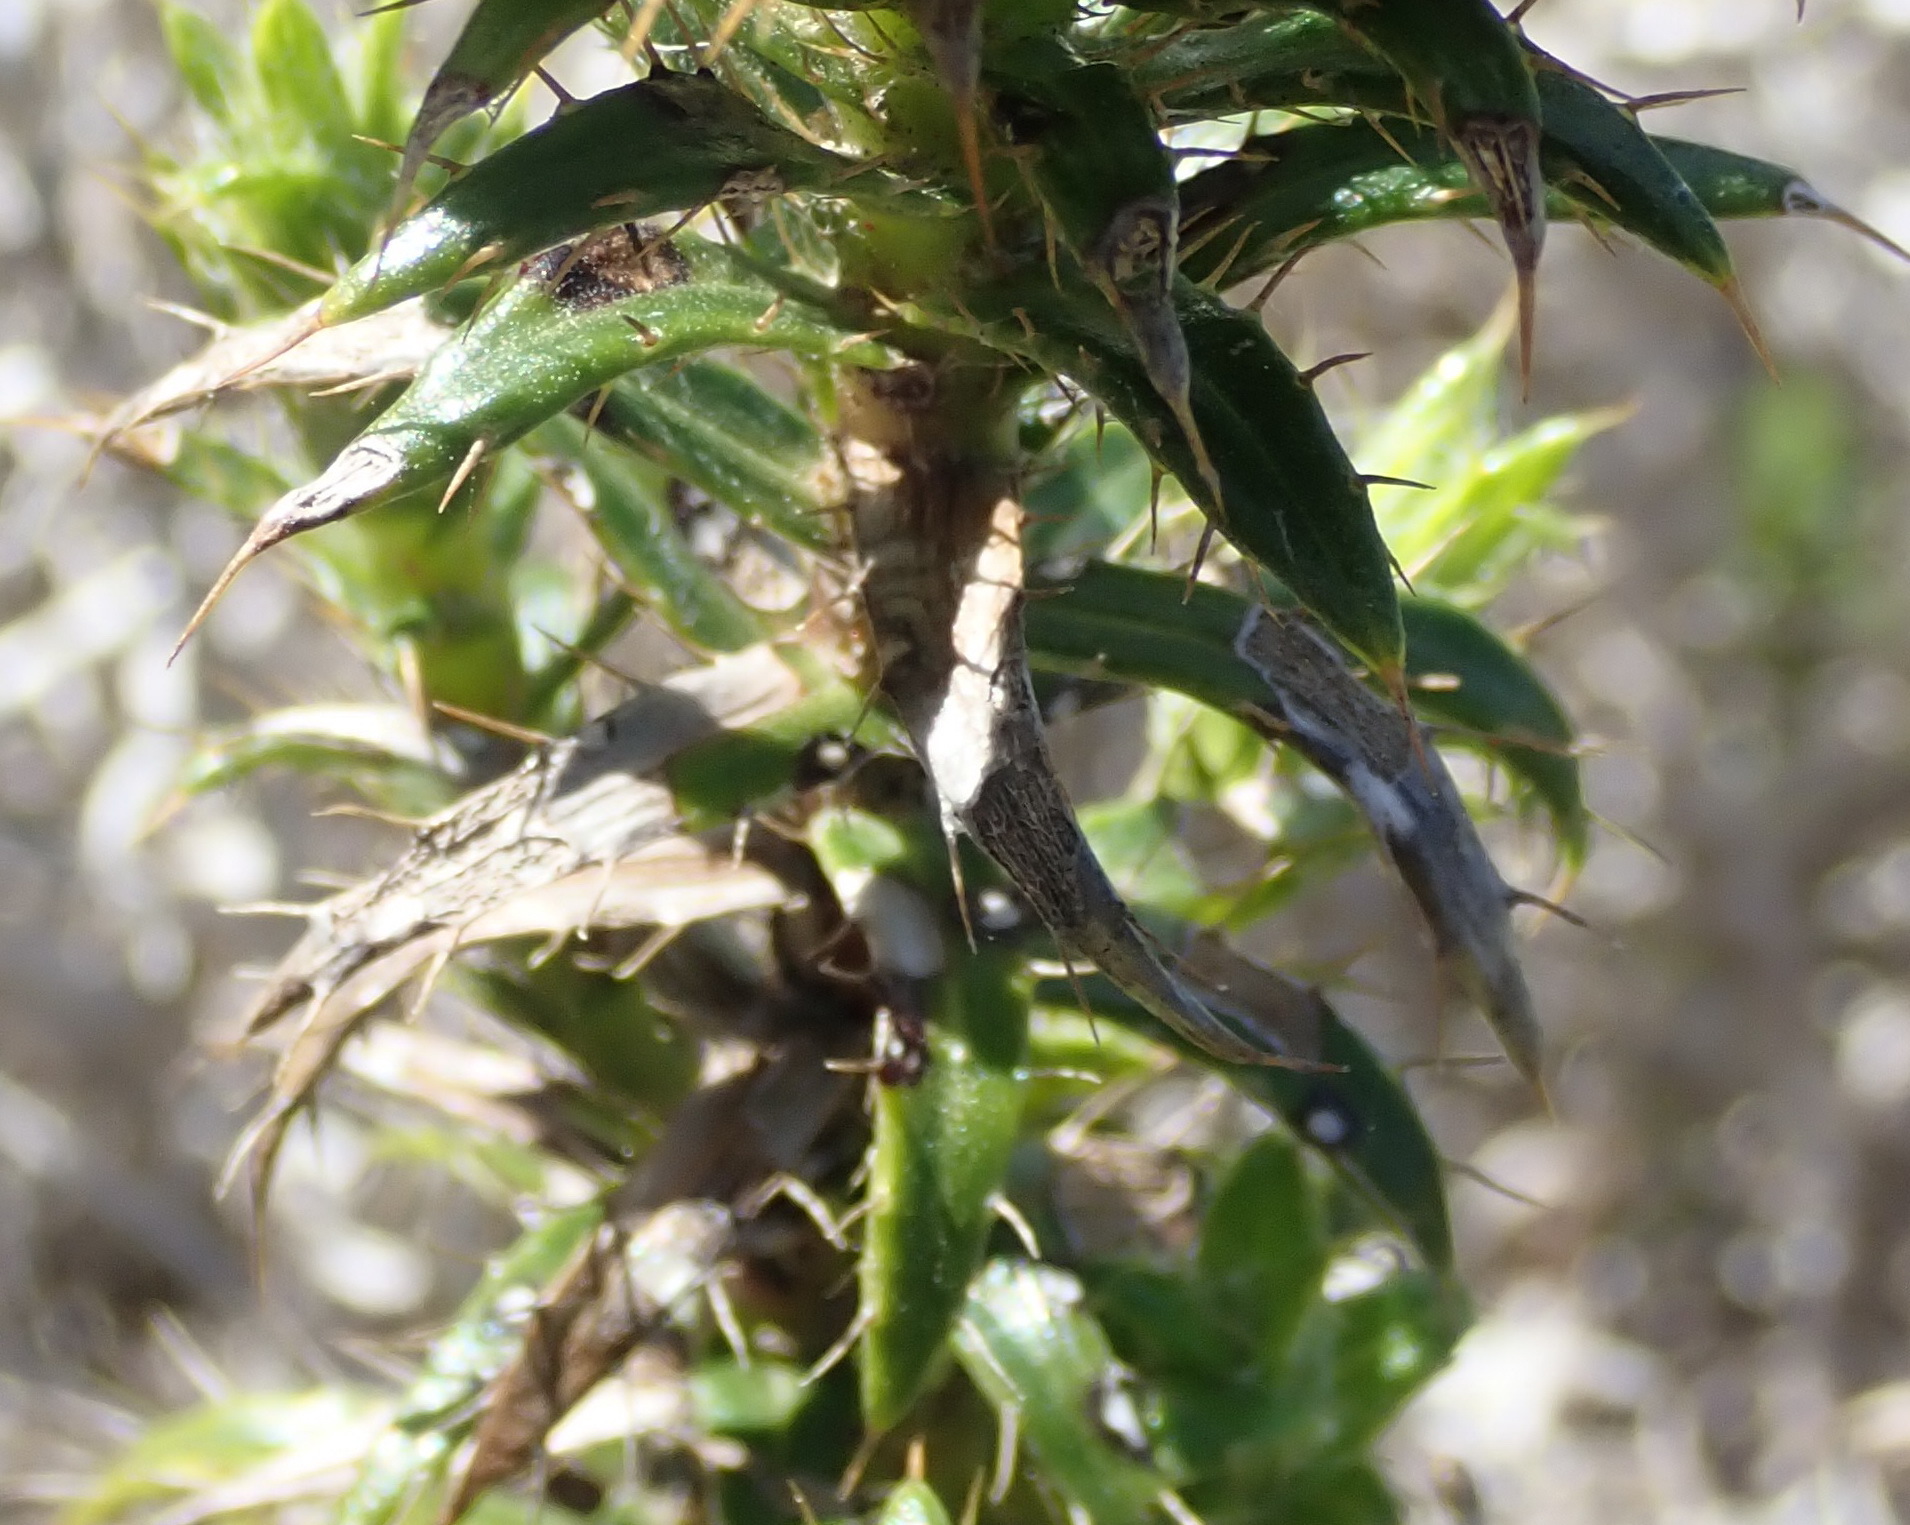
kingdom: Plantae
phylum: Tracheophyta
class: Magnoliopsida
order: Asterales
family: Asteraceae
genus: Cullumia
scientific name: Cullumia carlinoides
